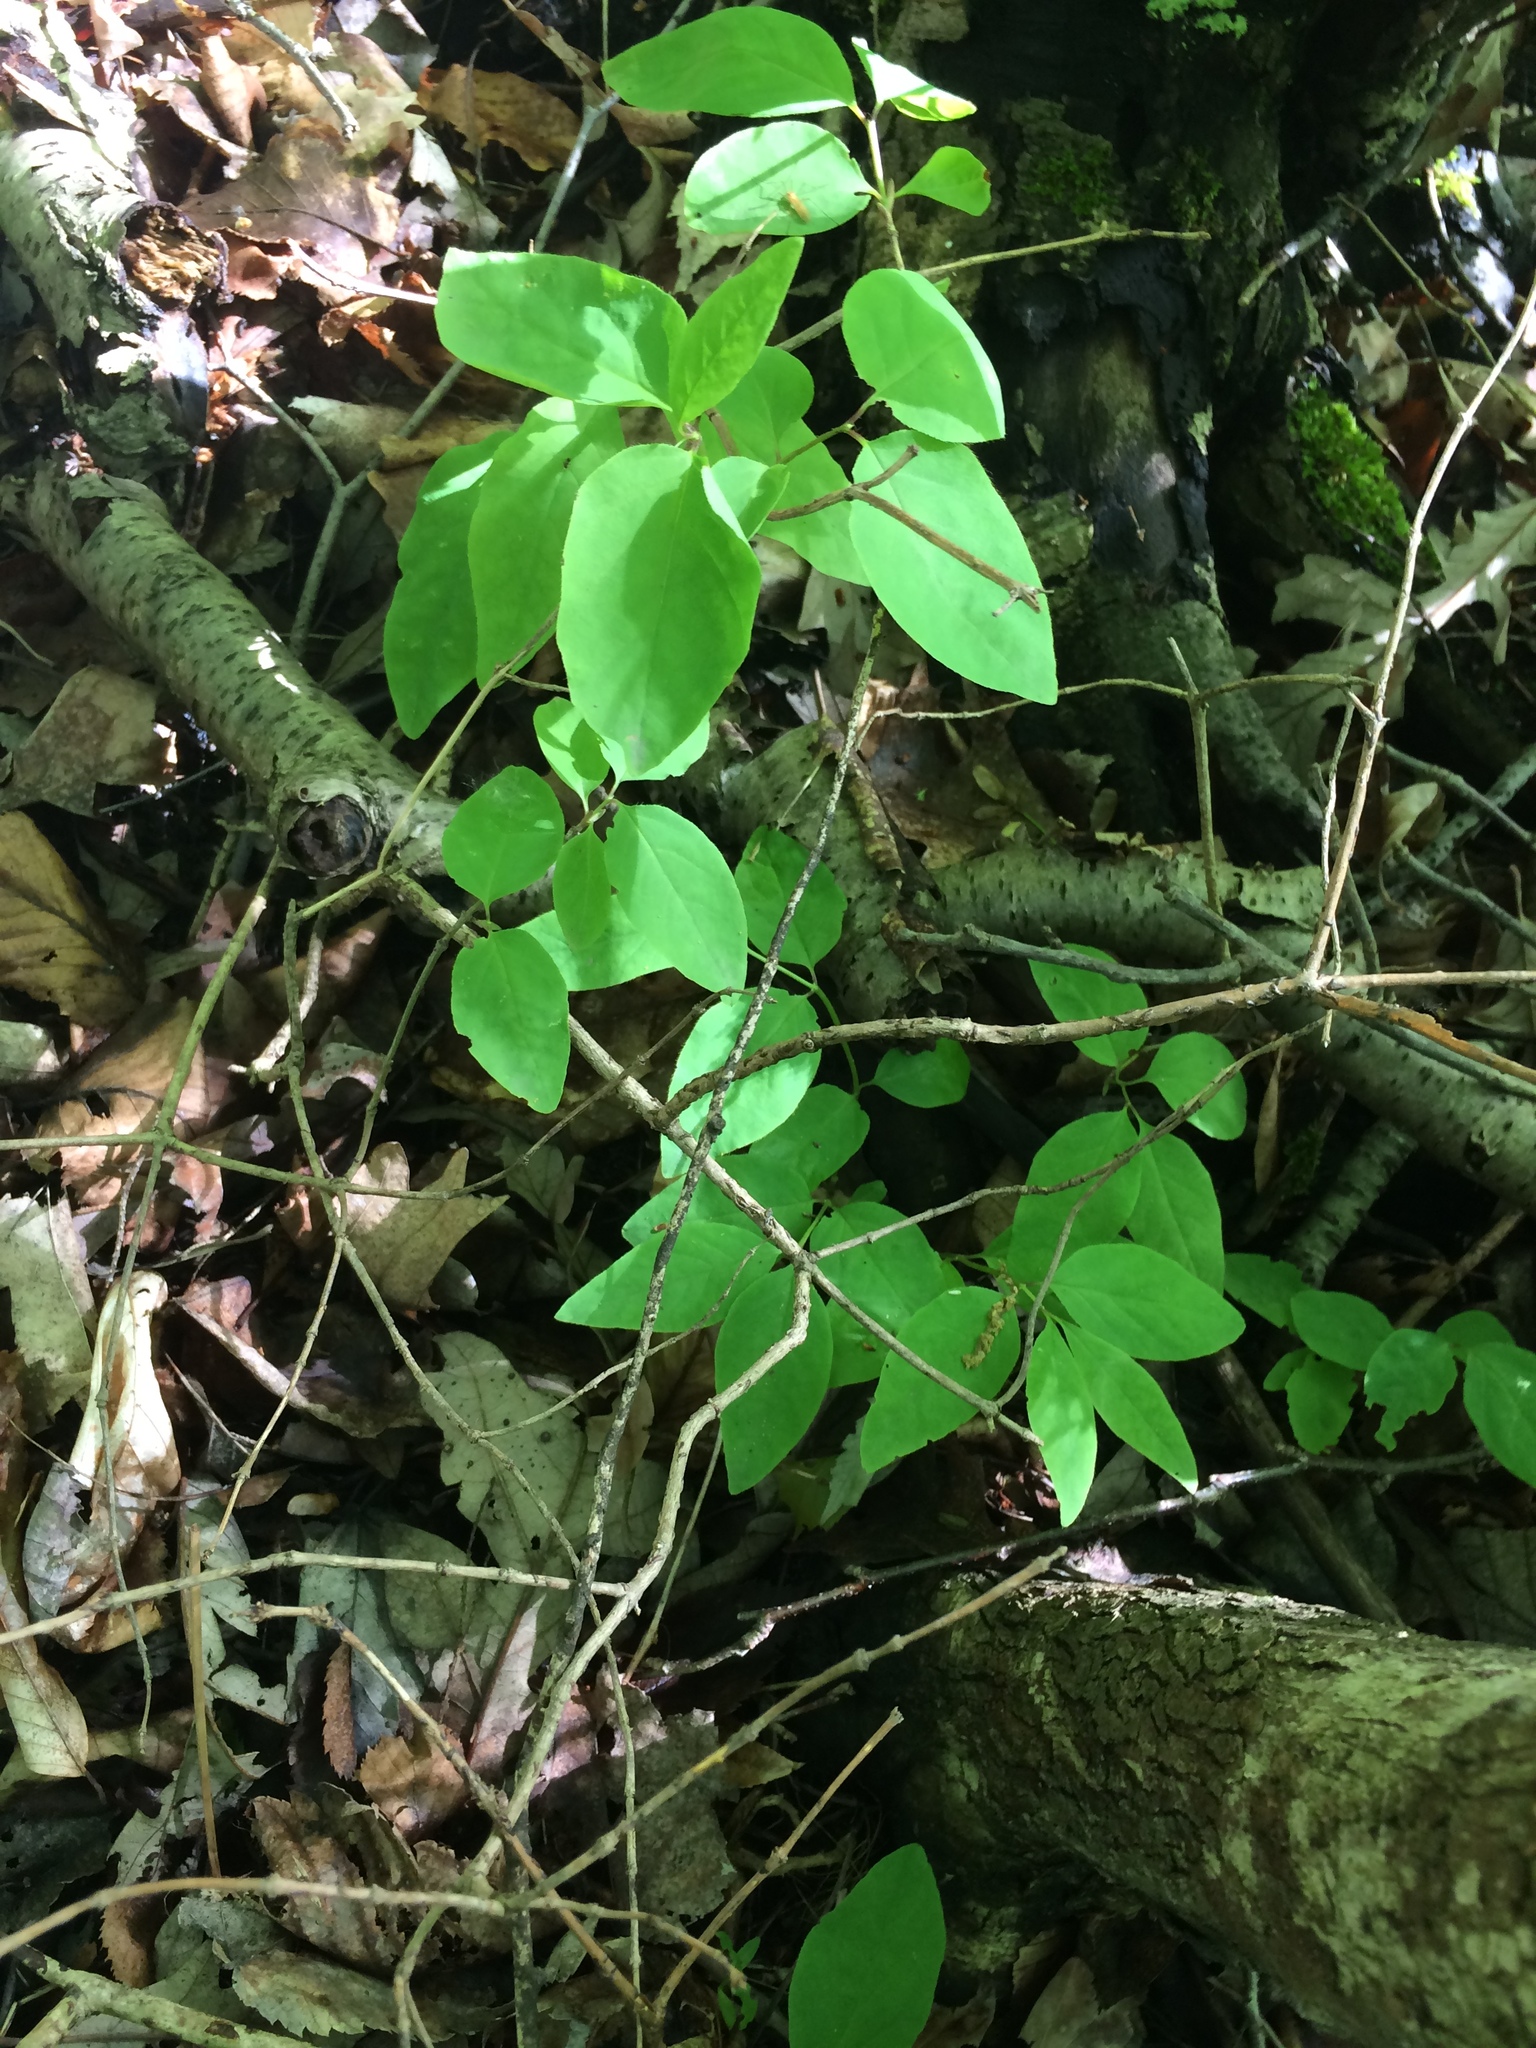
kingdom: Plantae
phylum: Tracheophyta
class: Magnoliopsida
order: Dipsacales
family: Caprifoliaceae
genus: Lonicera
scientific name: Lonicera canadensis
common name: American fly-honeysuckle
